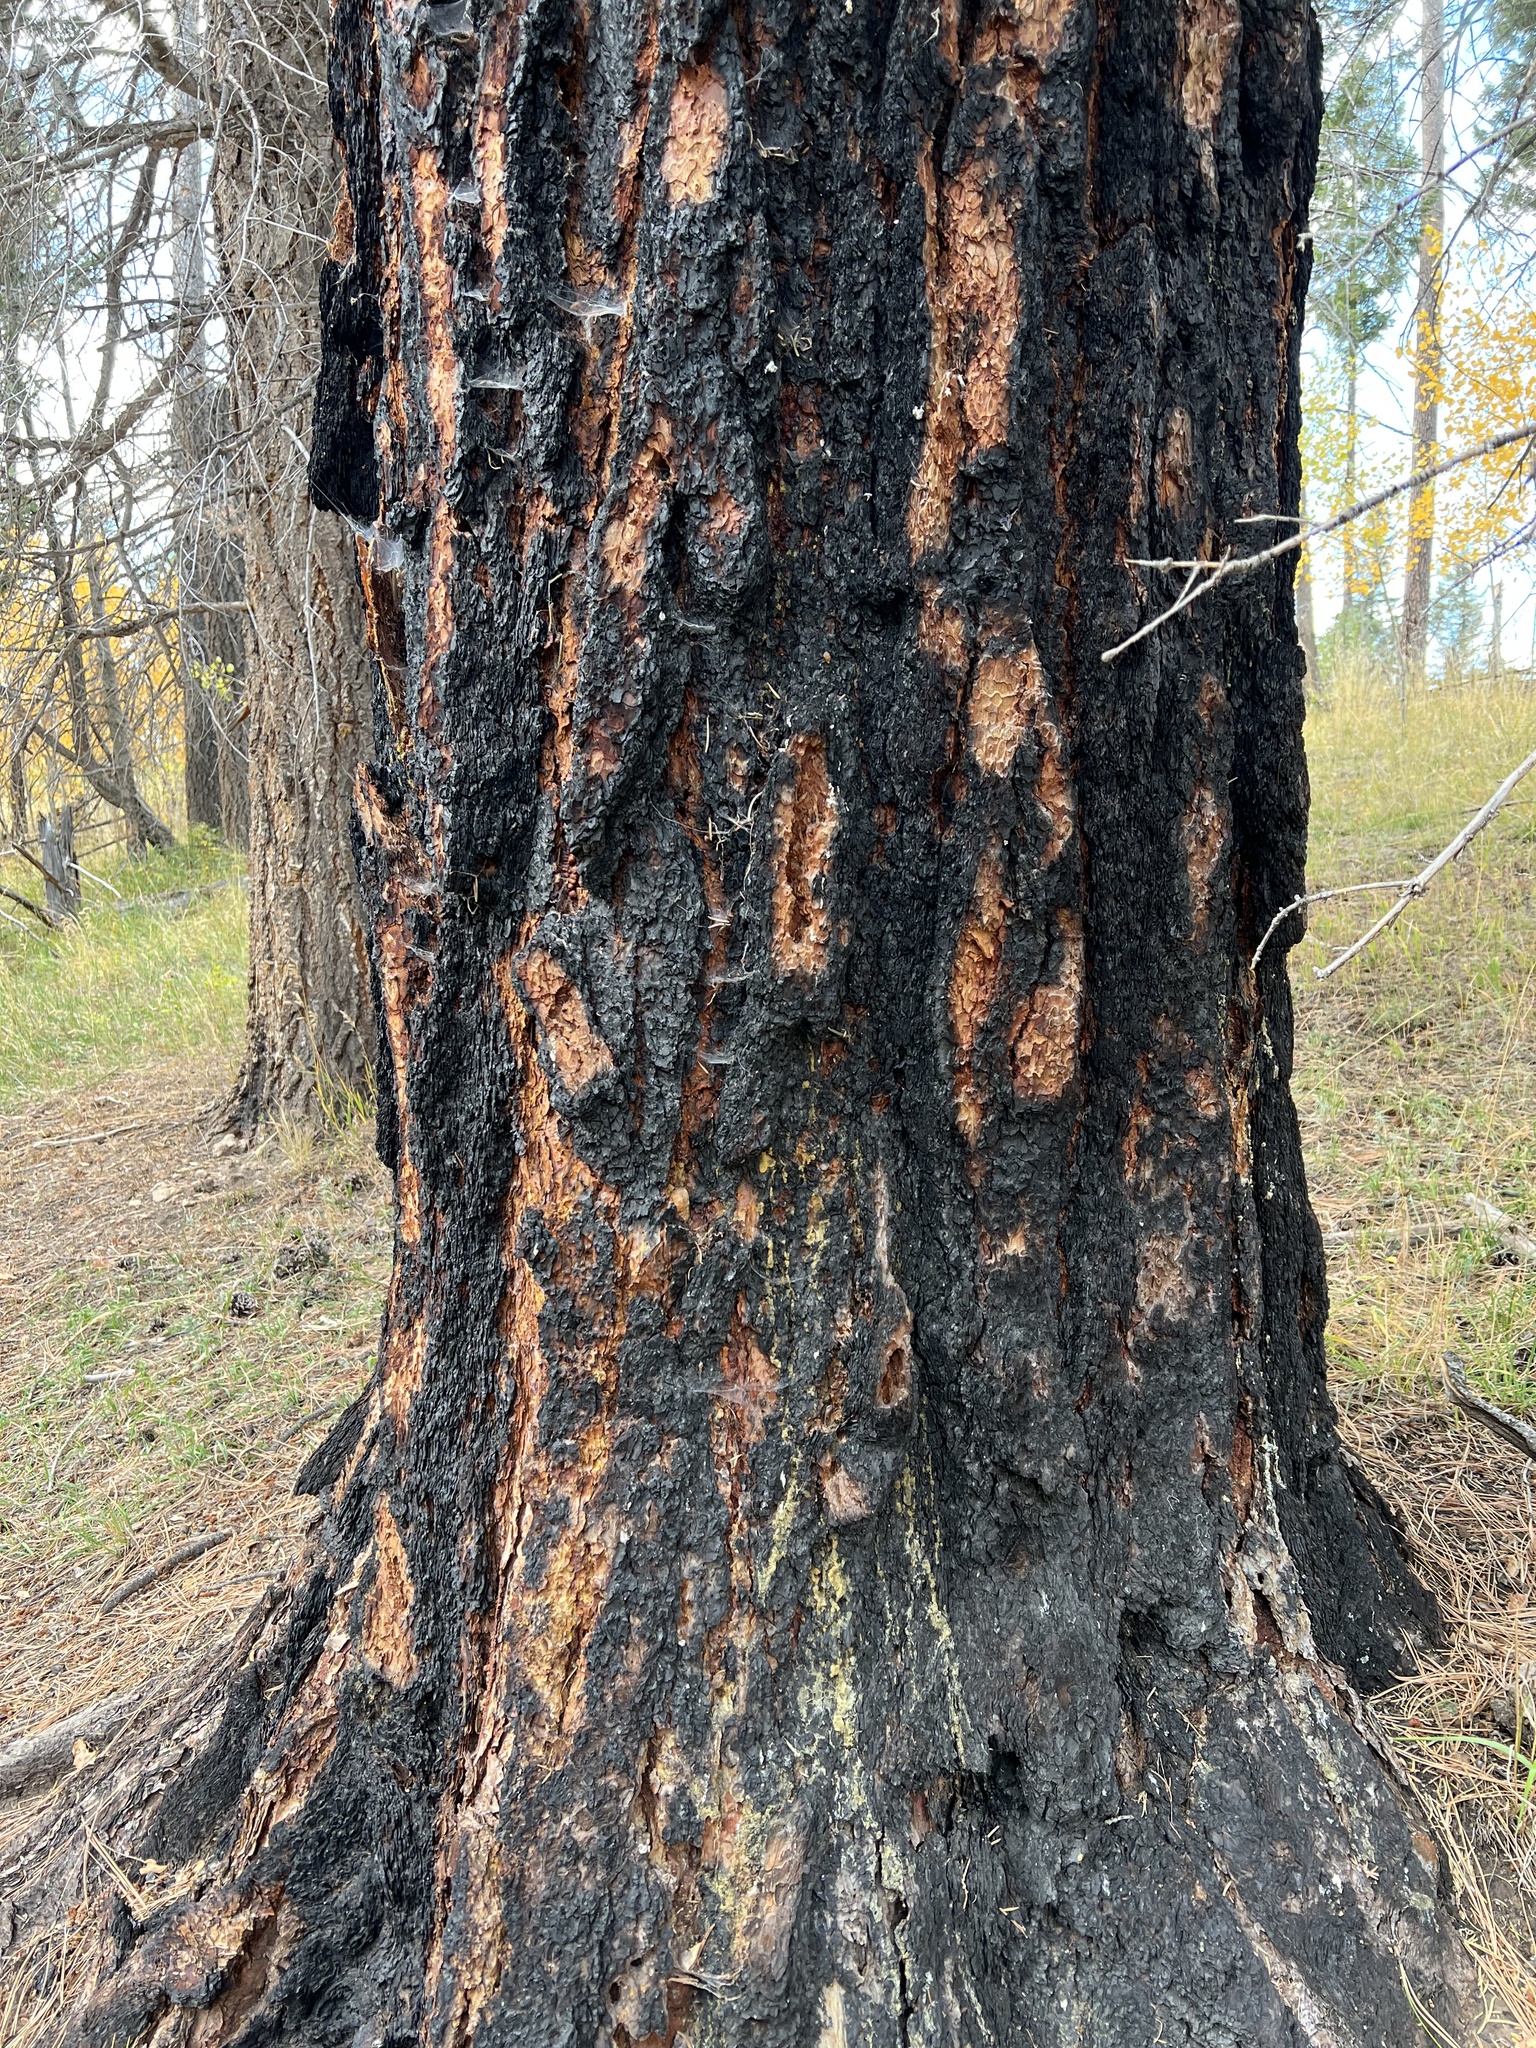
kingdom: Plantae
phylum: Tracheophyta
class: Pinopsida
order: Pinales
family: Pinaceae
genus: Pinus
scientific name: Pinus ponderosa
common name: Western yellow-pine
